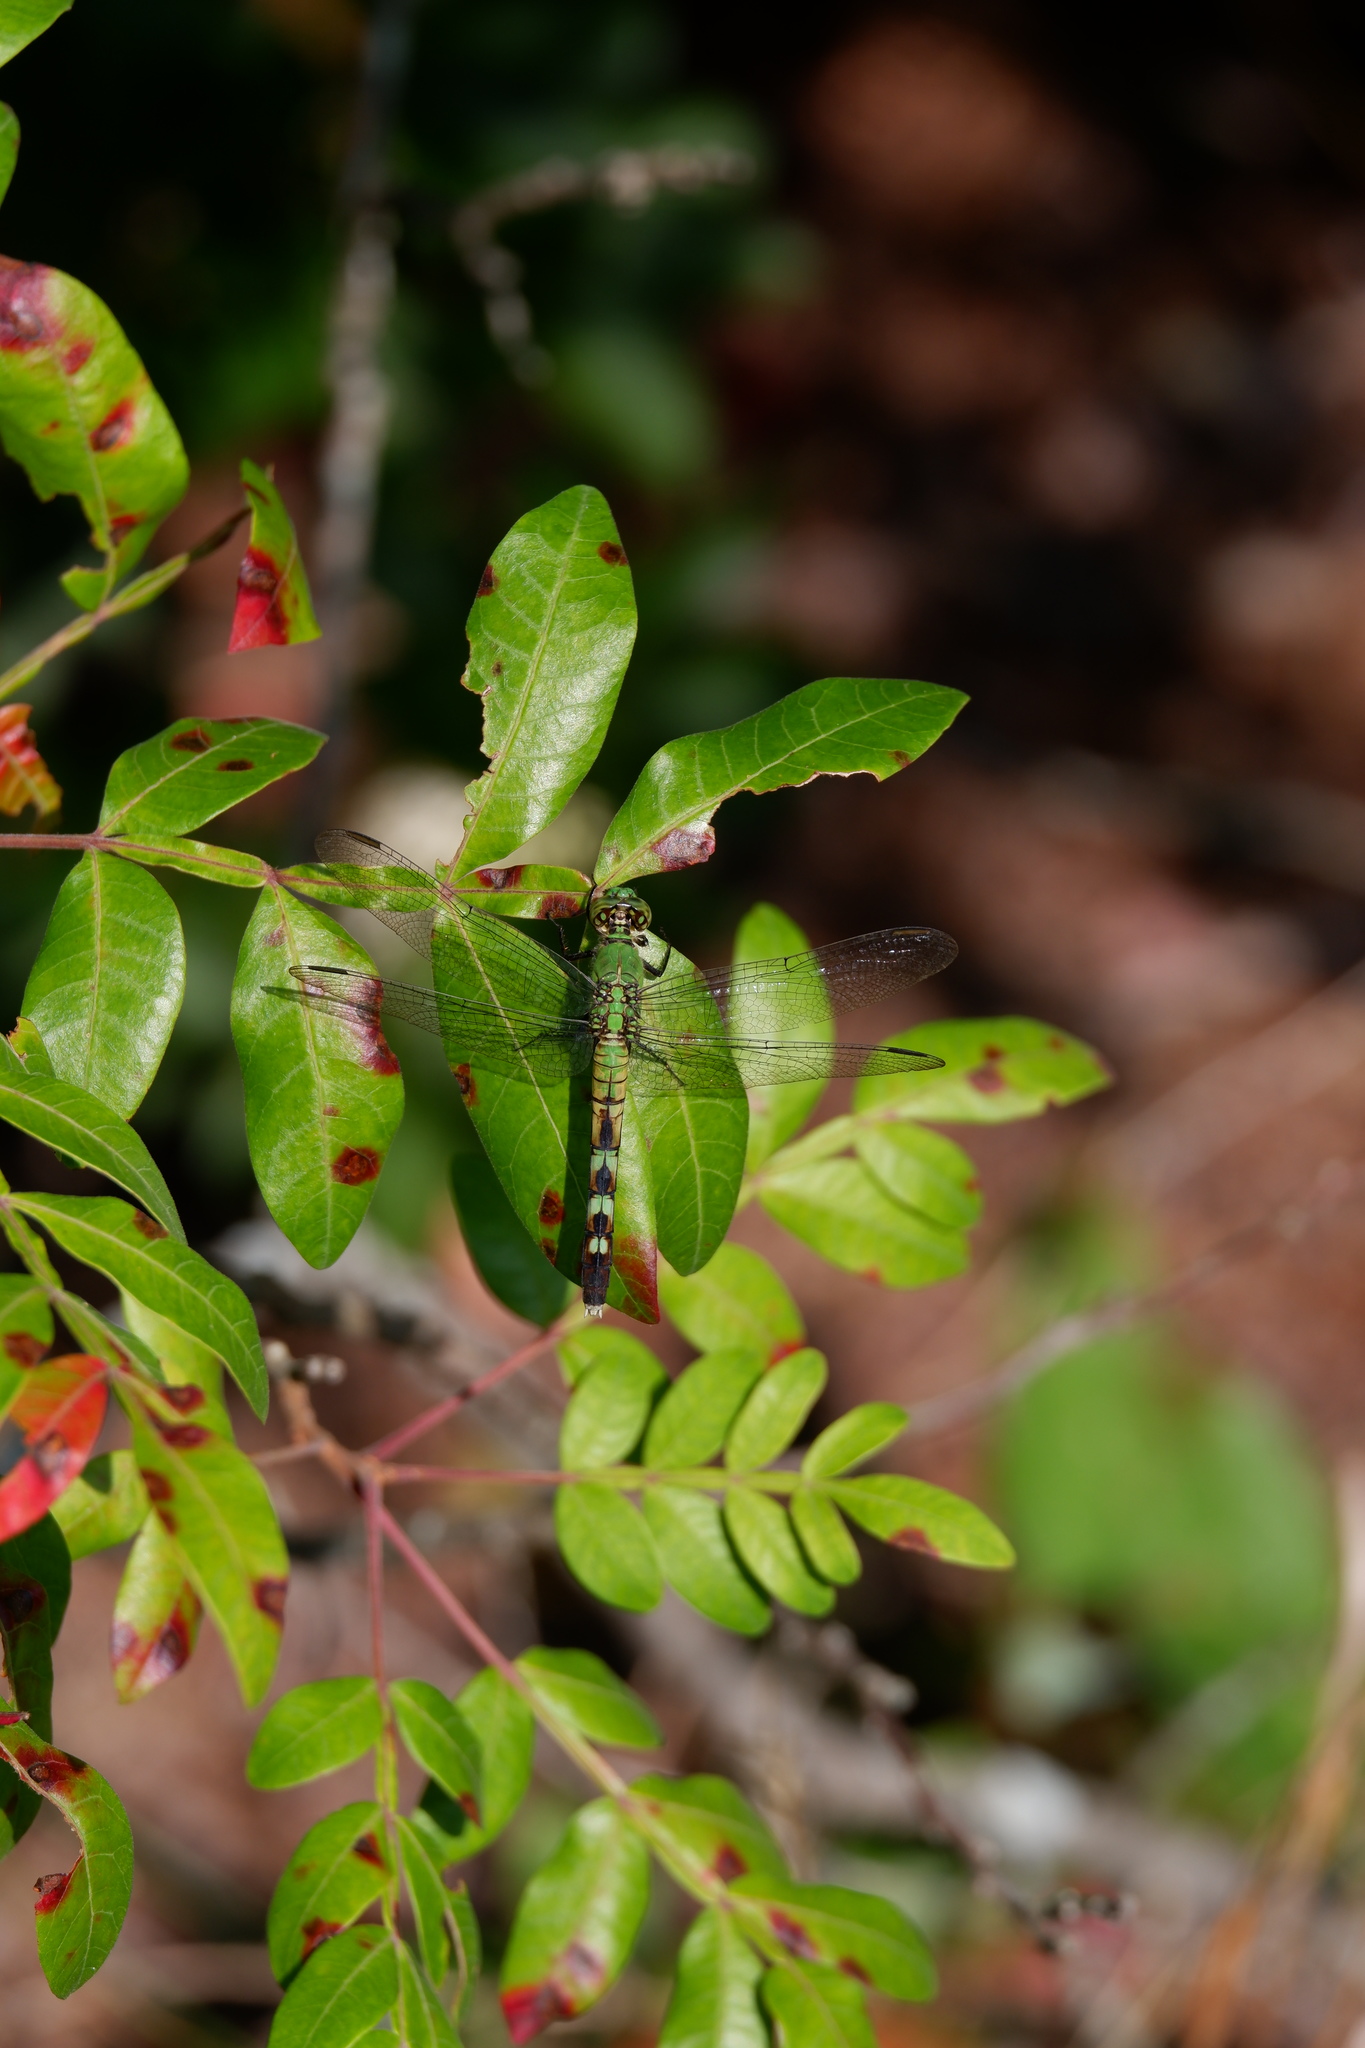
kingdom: Animalia
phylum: Arthropoda
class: Insecta
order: Odonata
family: Libellulidae
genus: Erythemis
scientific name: Erythemis simplicicollis
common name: Eastern pondhawk
